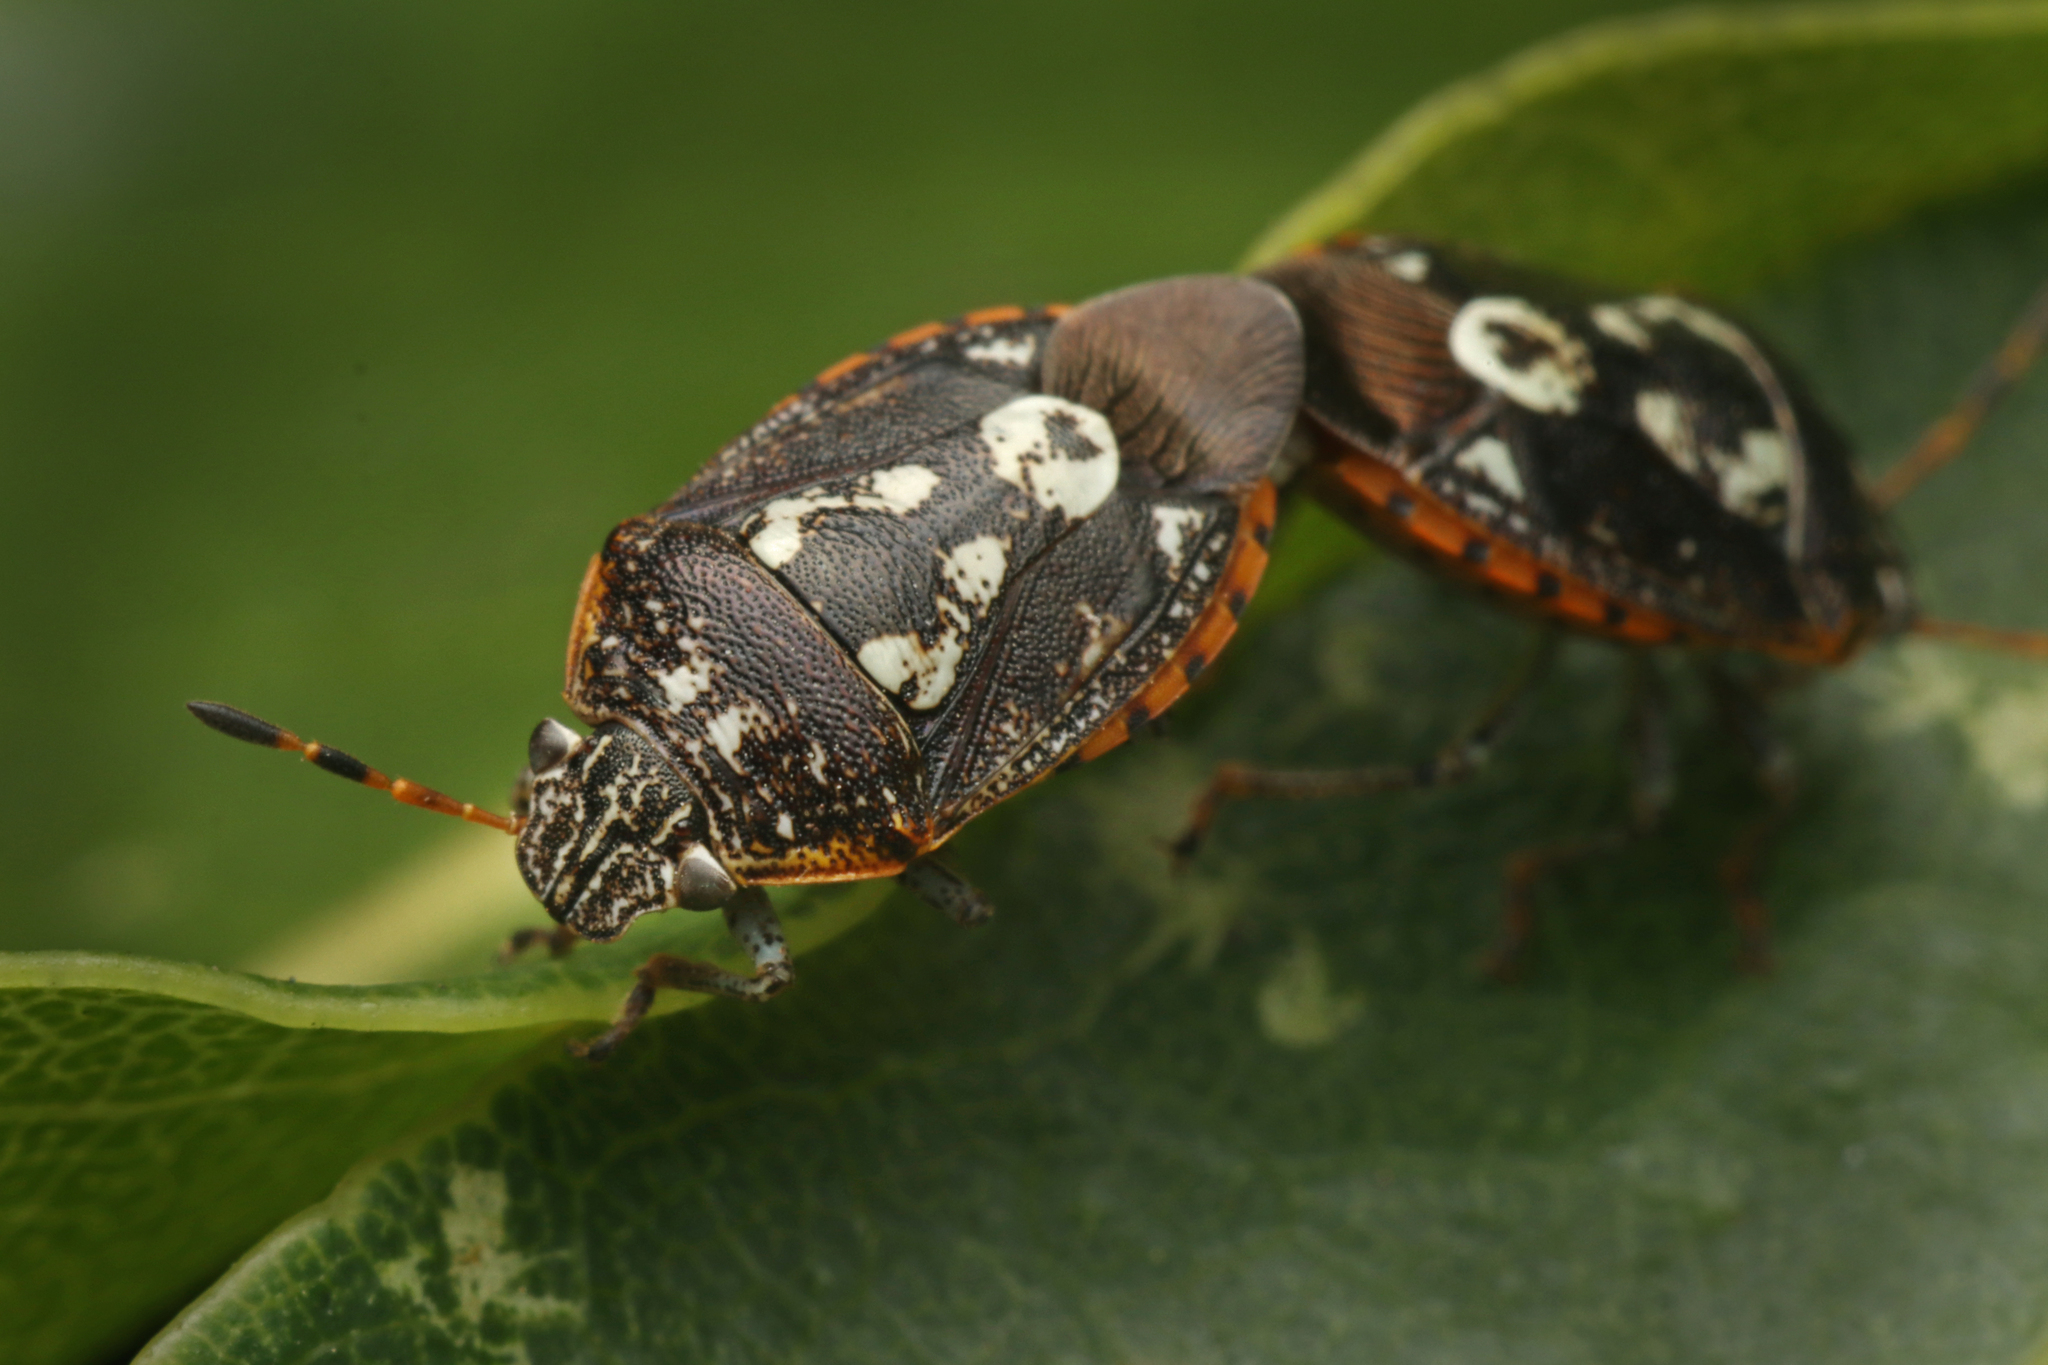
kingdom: Animalia
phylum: Arthropoda
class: Insecta
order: Hemiptera
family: Pentatomidae
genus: Pseudapines
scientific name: Pseudapines
